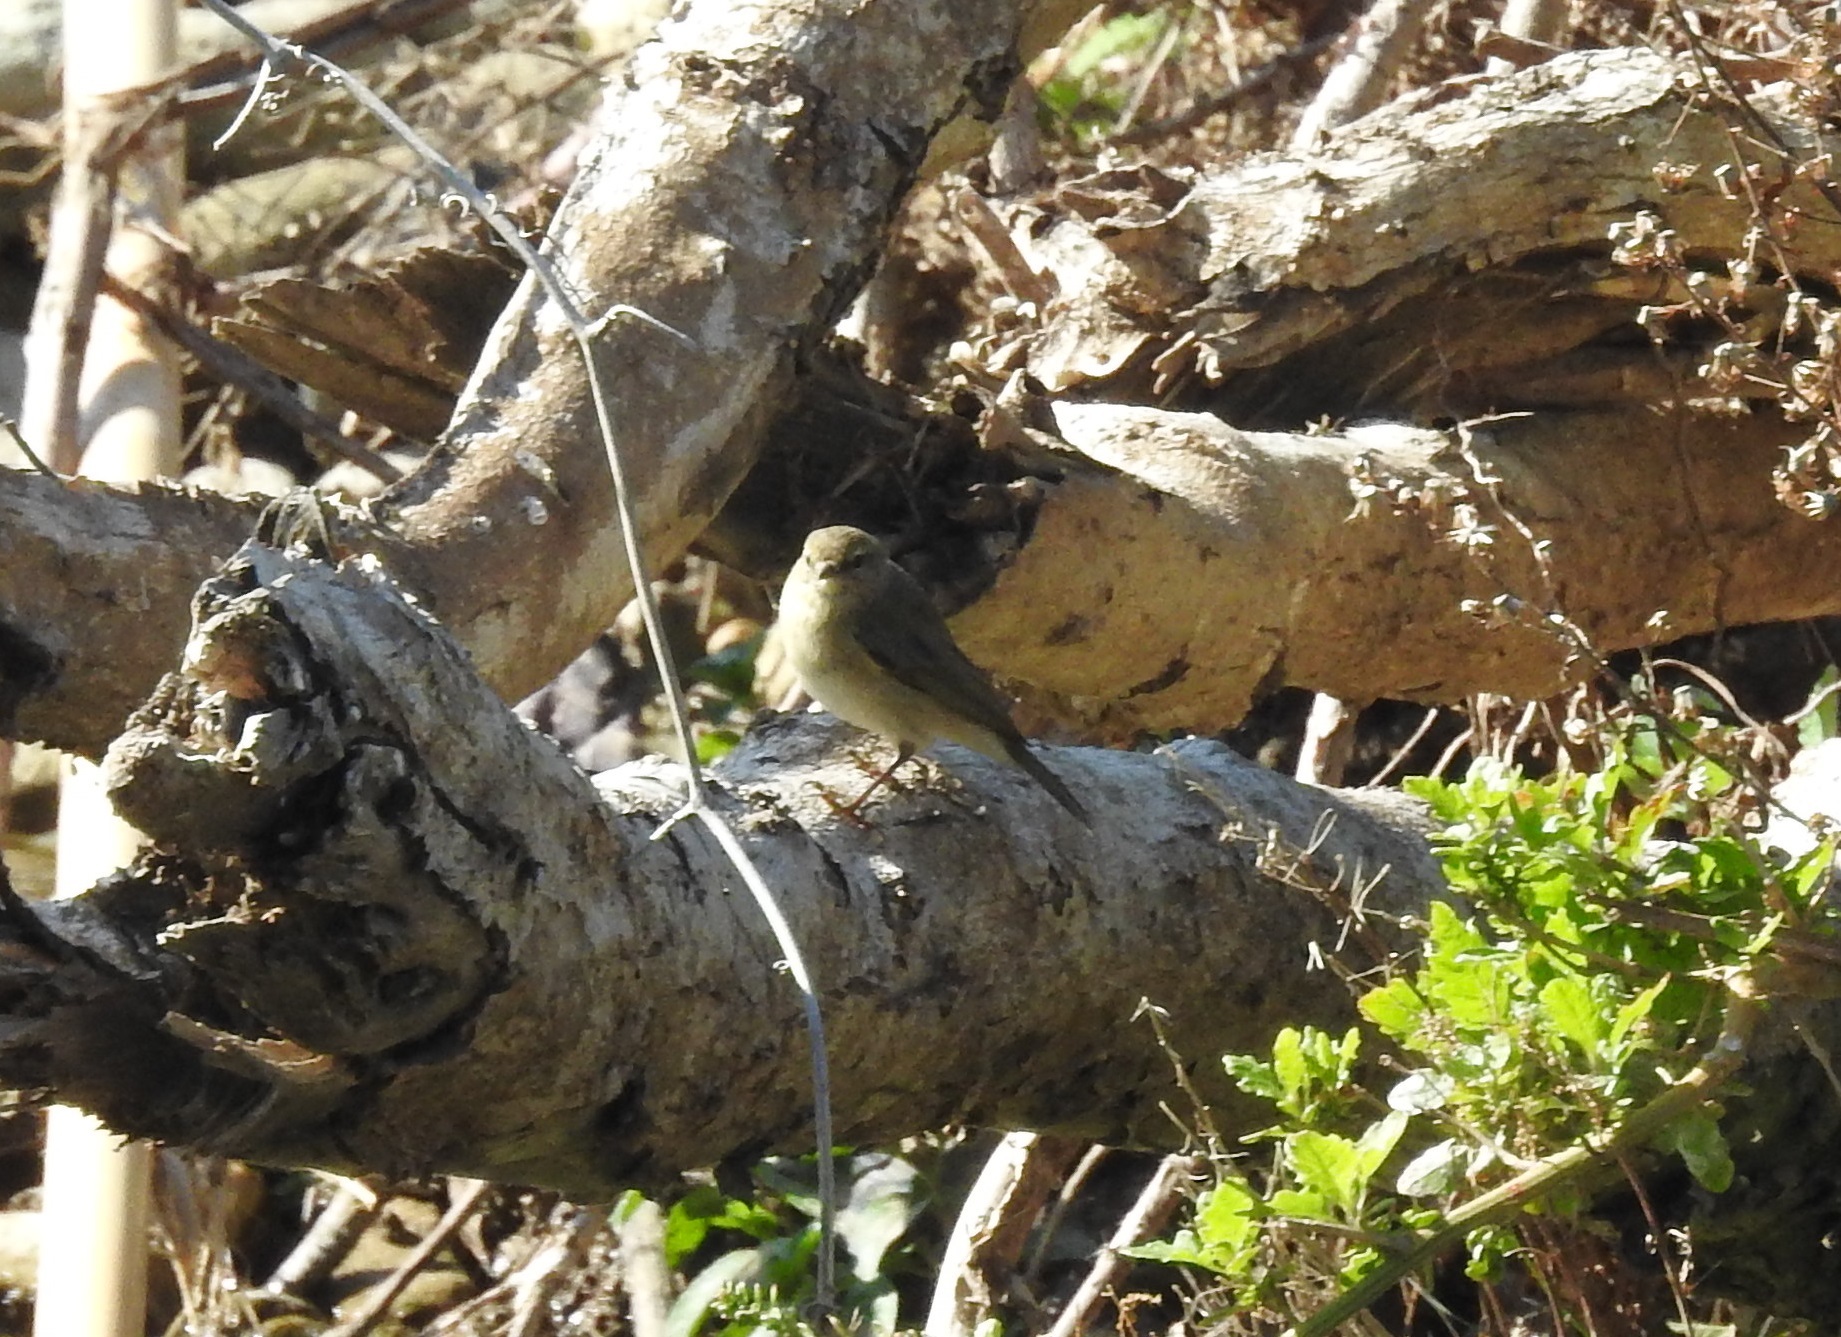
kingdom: Animalia
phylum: Chordata
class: Aves
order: Passeriformes
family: Phylloscopidae
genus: Phylloscopus
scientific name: Phylloscopus collybita
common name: Common chiffchaff
